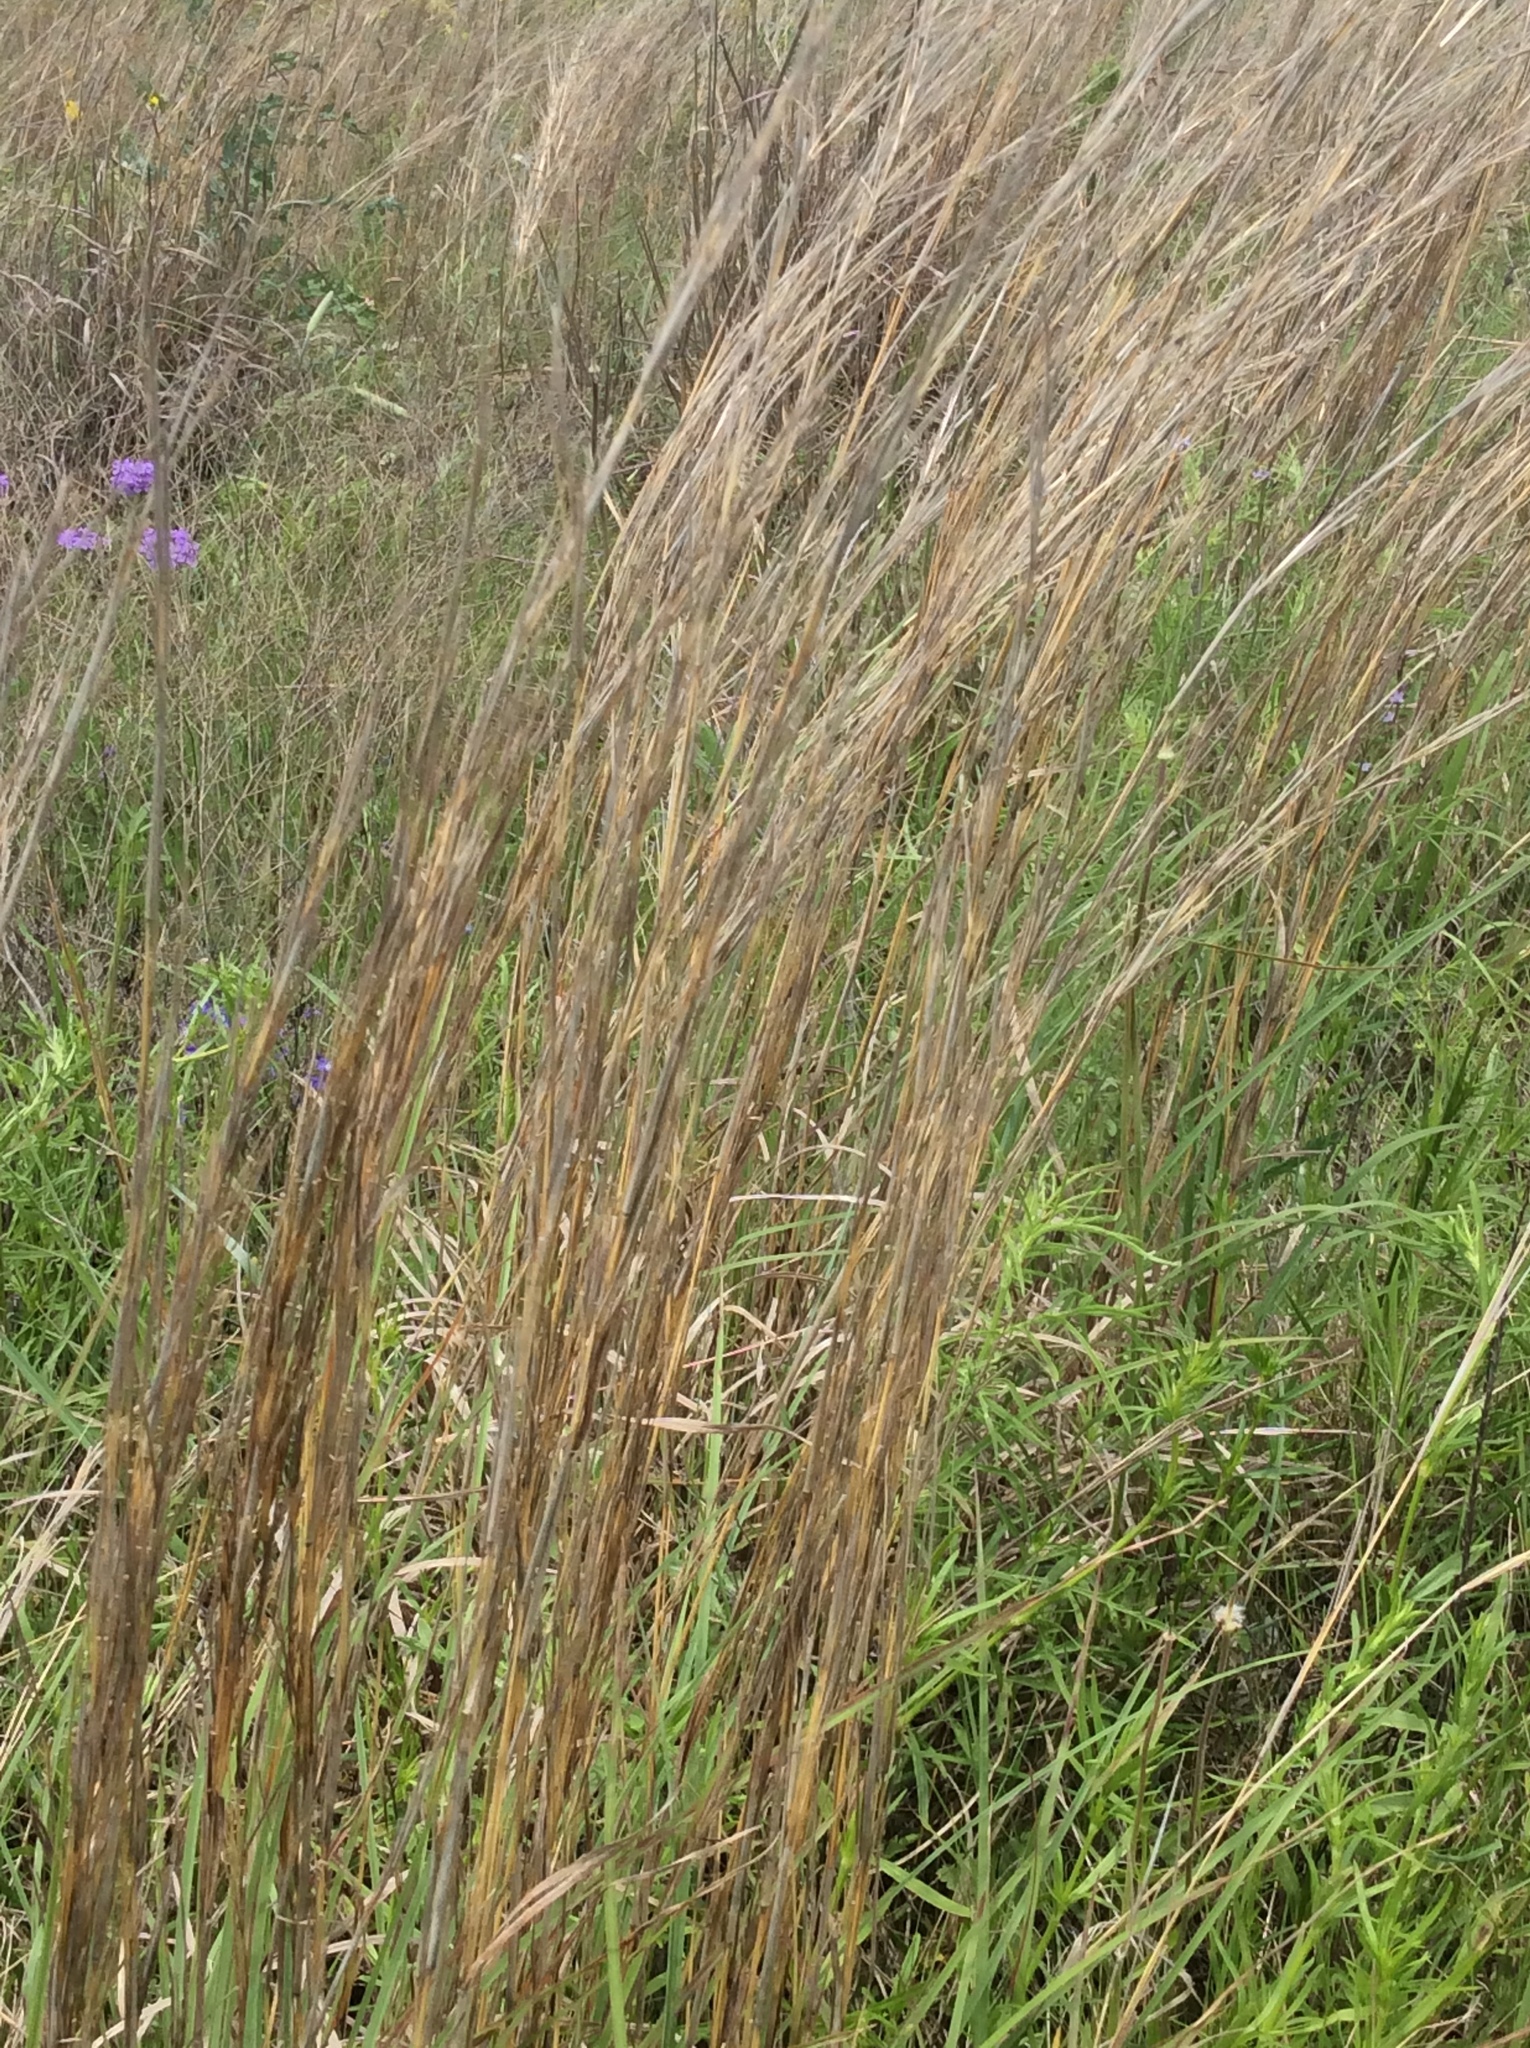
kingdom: Plantae
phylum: Tracheophyta
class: Liliopsida
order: Poales
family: Poaceae
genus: Schizachyrium
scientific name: Schizachyrium scoparium
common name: Little bluestem
